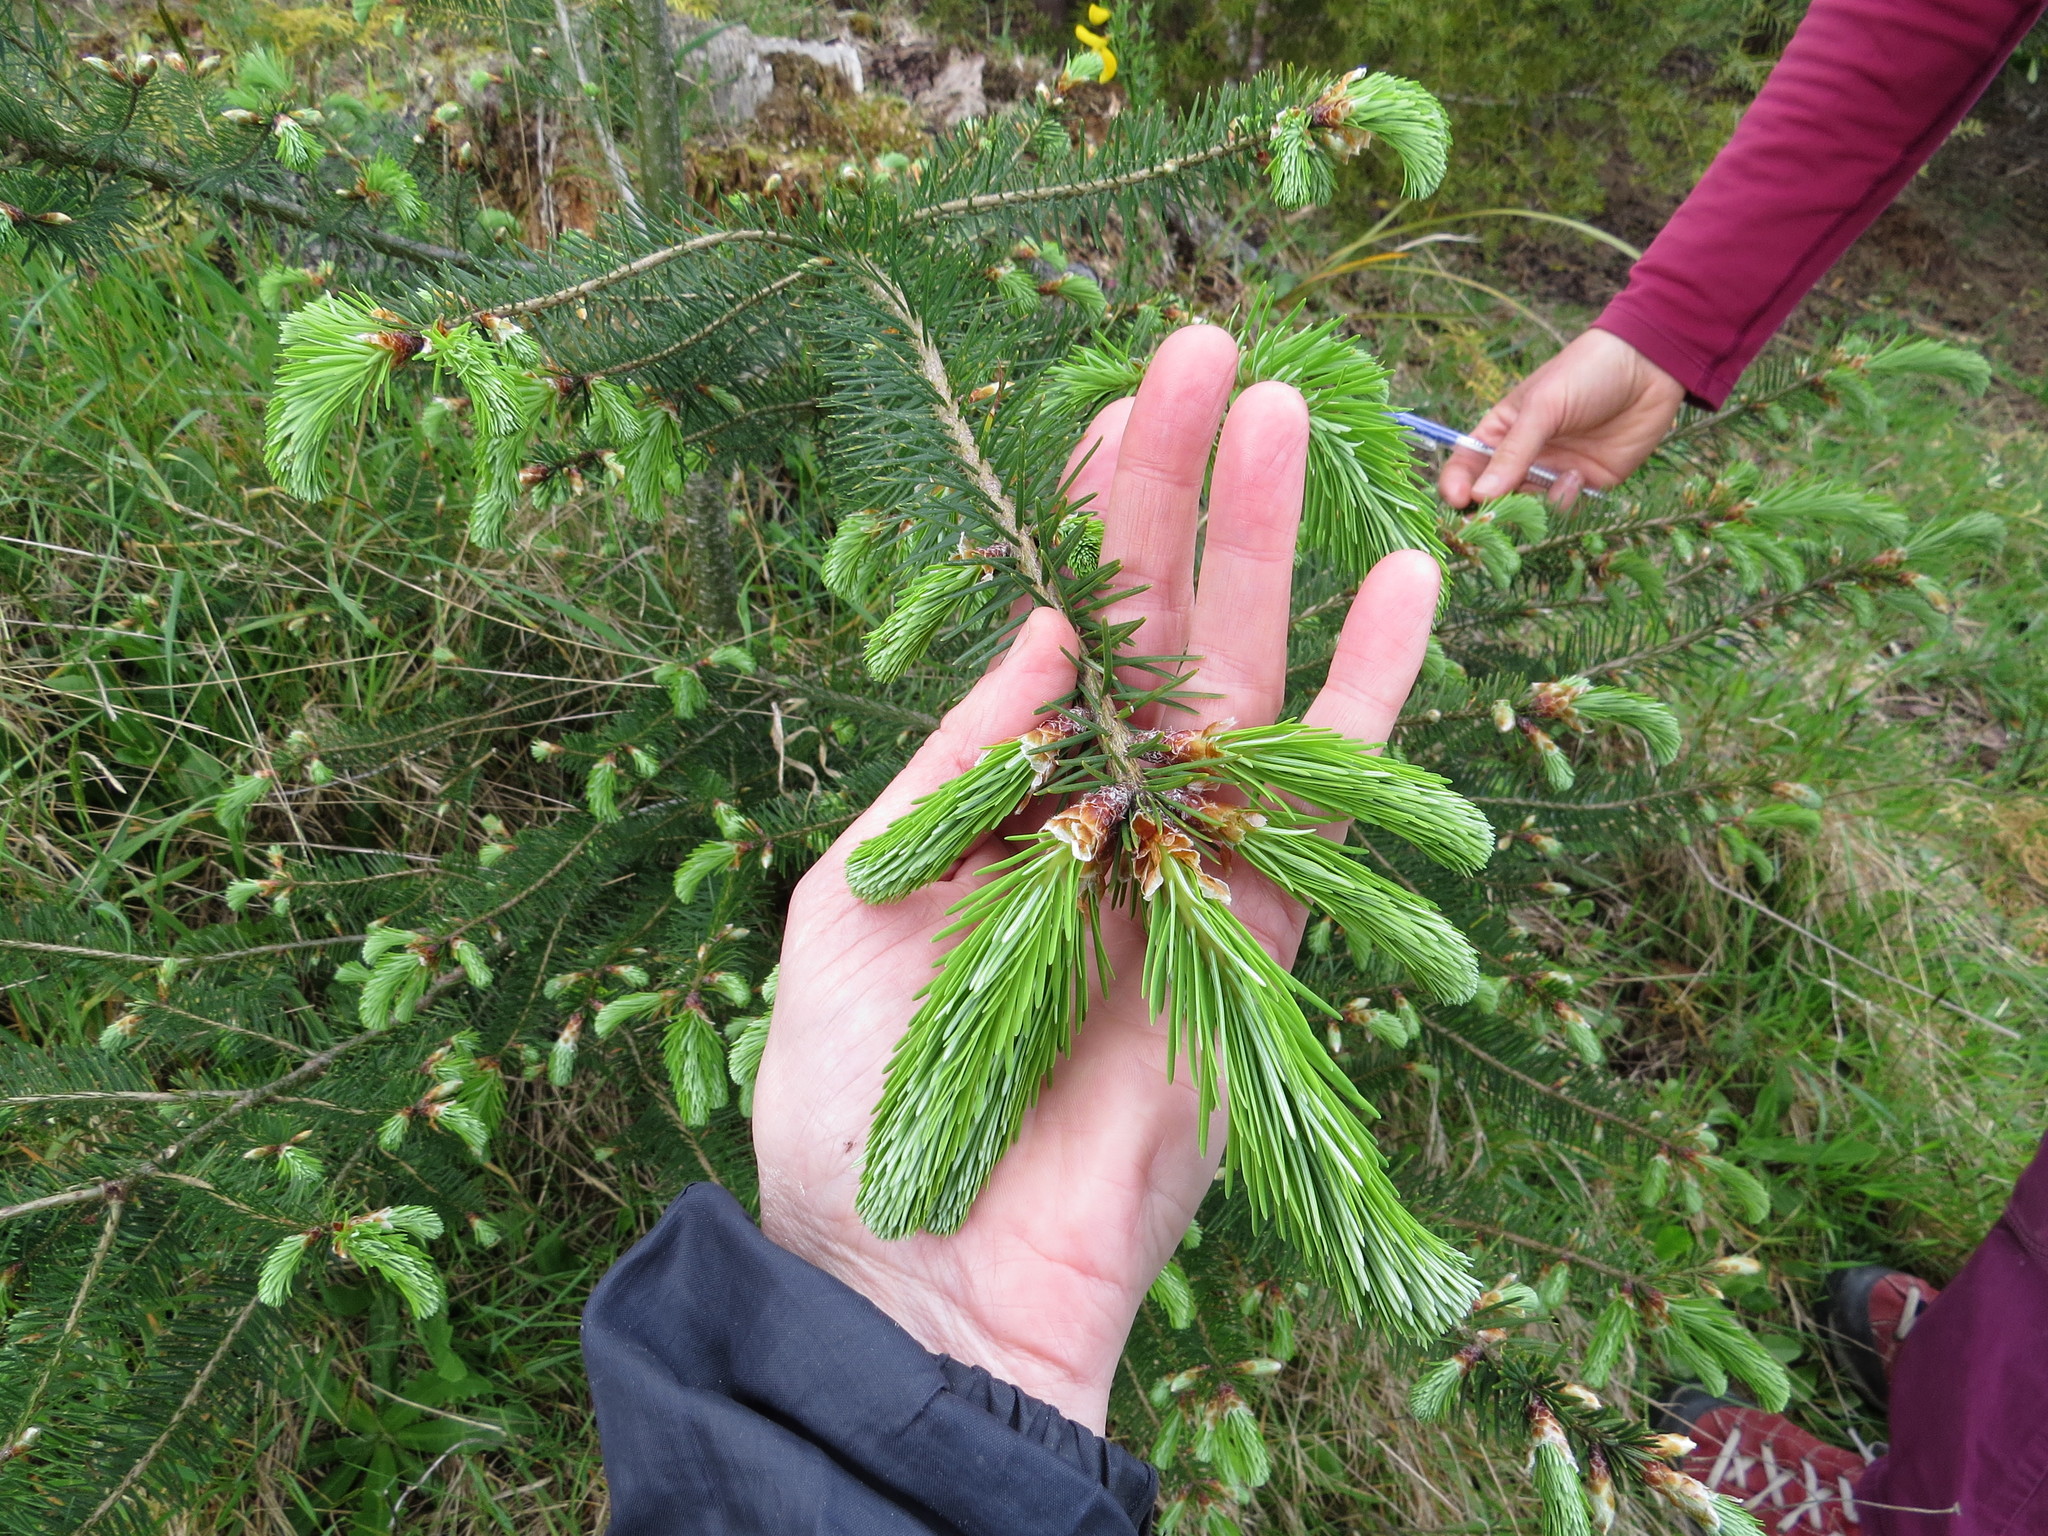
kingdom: Plantae
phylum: Tracheophyta
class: Pinopsida
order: Pinales
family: Pinaceae
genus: Pseudotsuga
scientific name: Pseudotsuga menziesii
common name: Douglas fir
